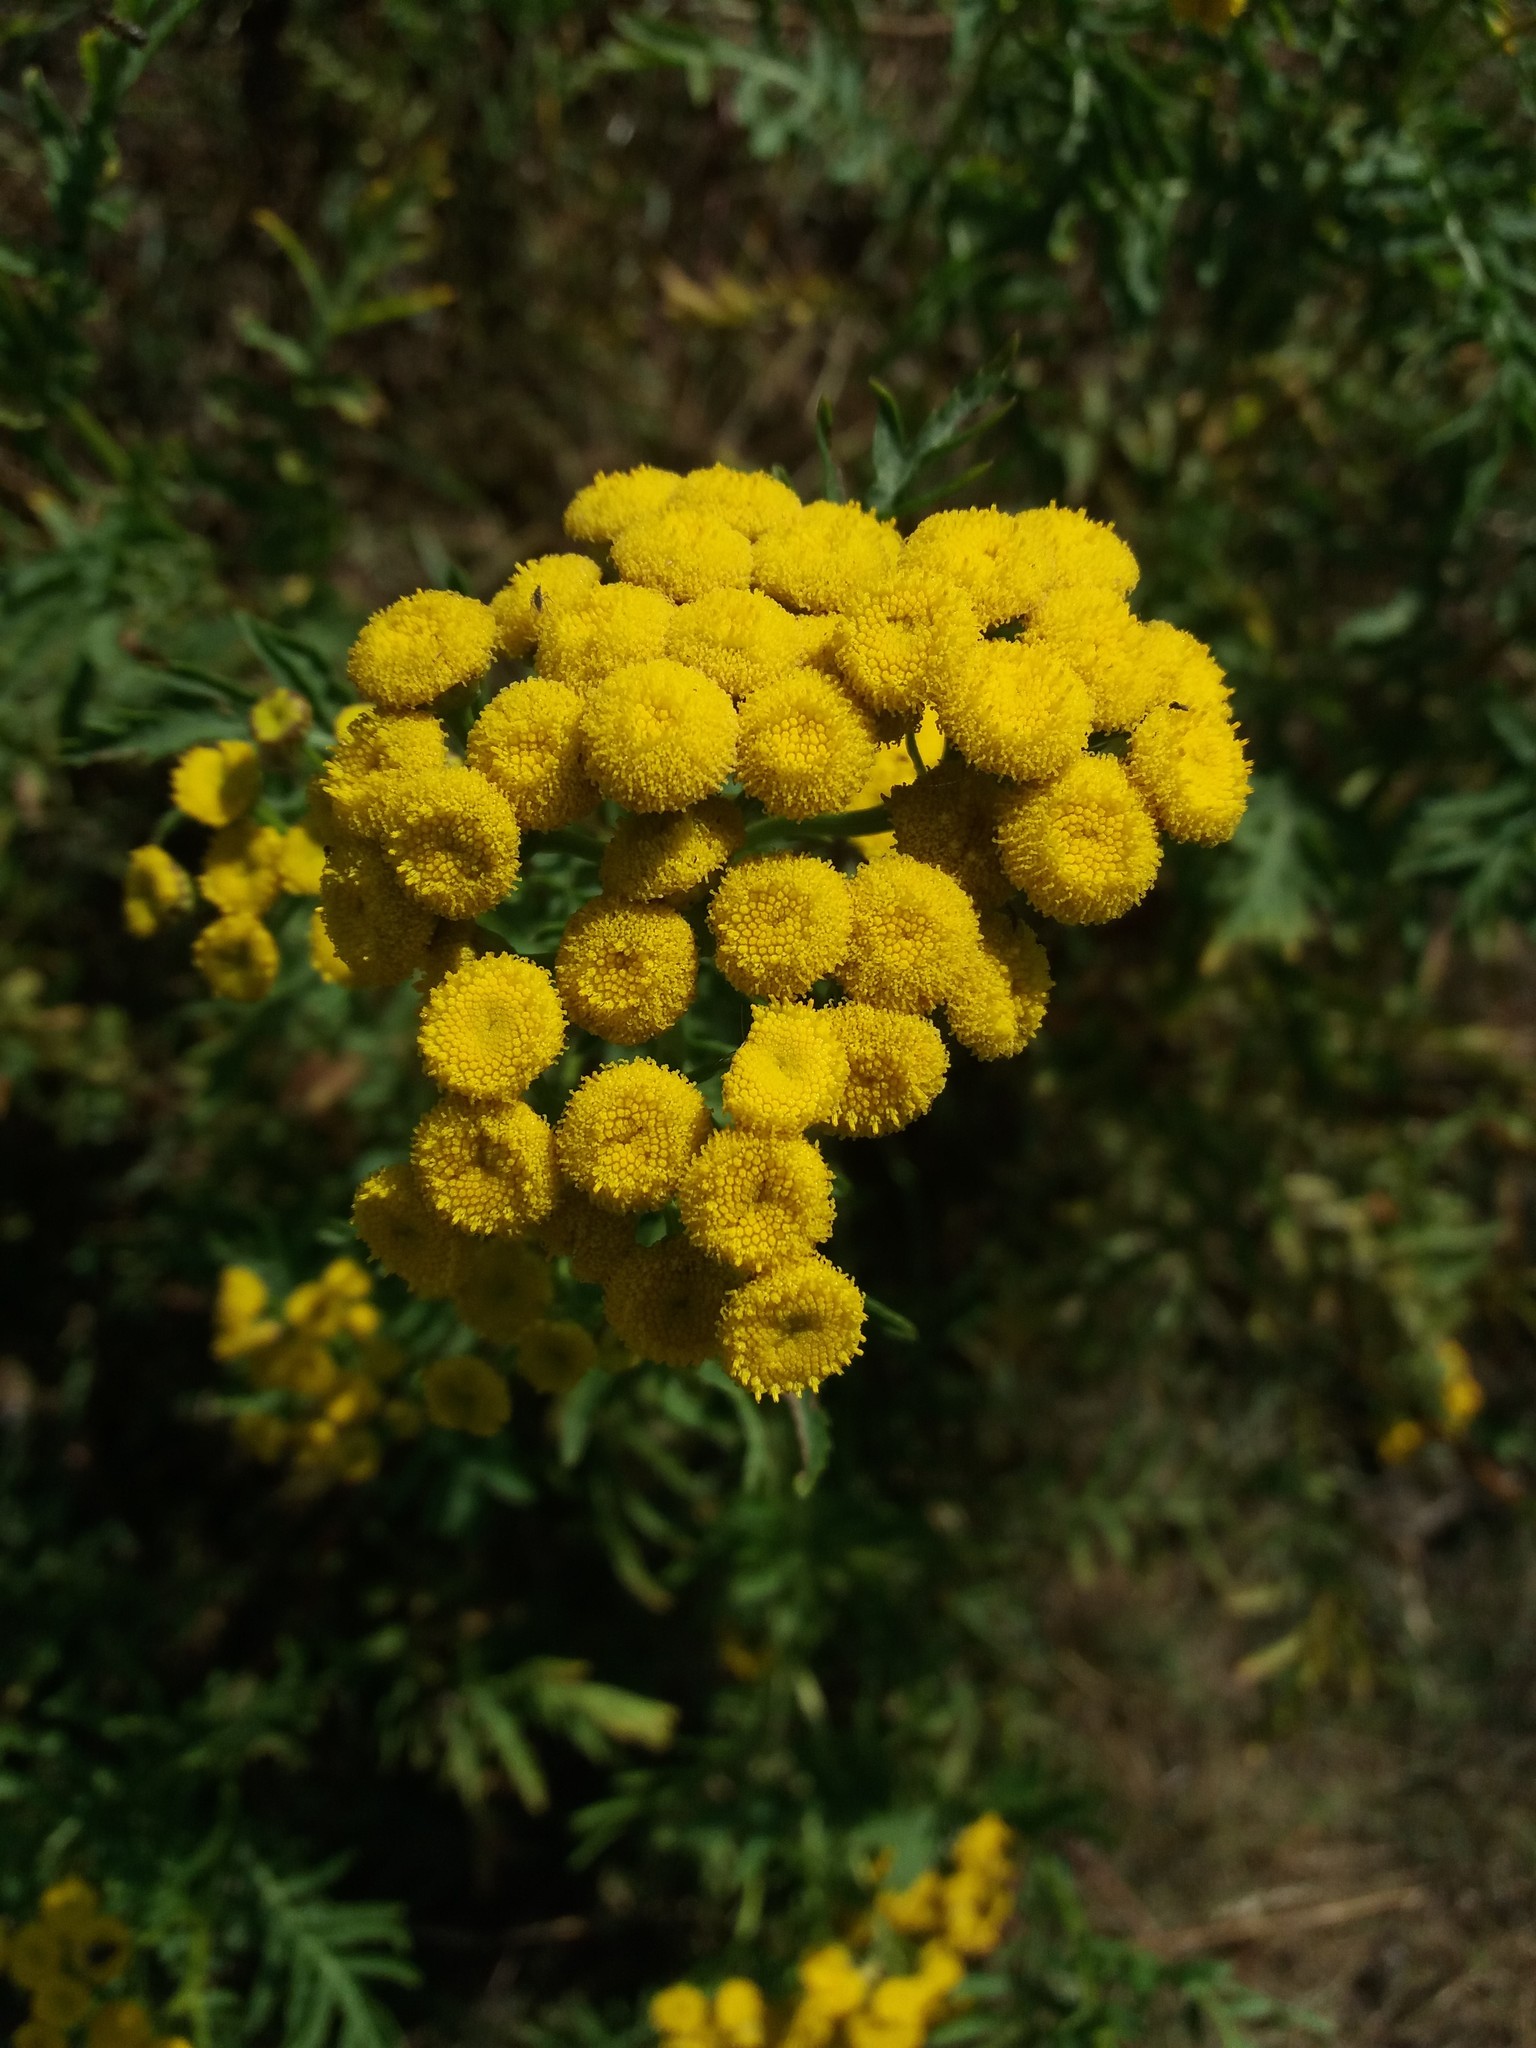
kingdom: Plantae
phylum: Tracheophyta
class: Magnoliopsida
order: Asterales
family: Asteraceae
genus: Tanacetum
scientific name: Tanacetum vulgare
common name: Common tansy
